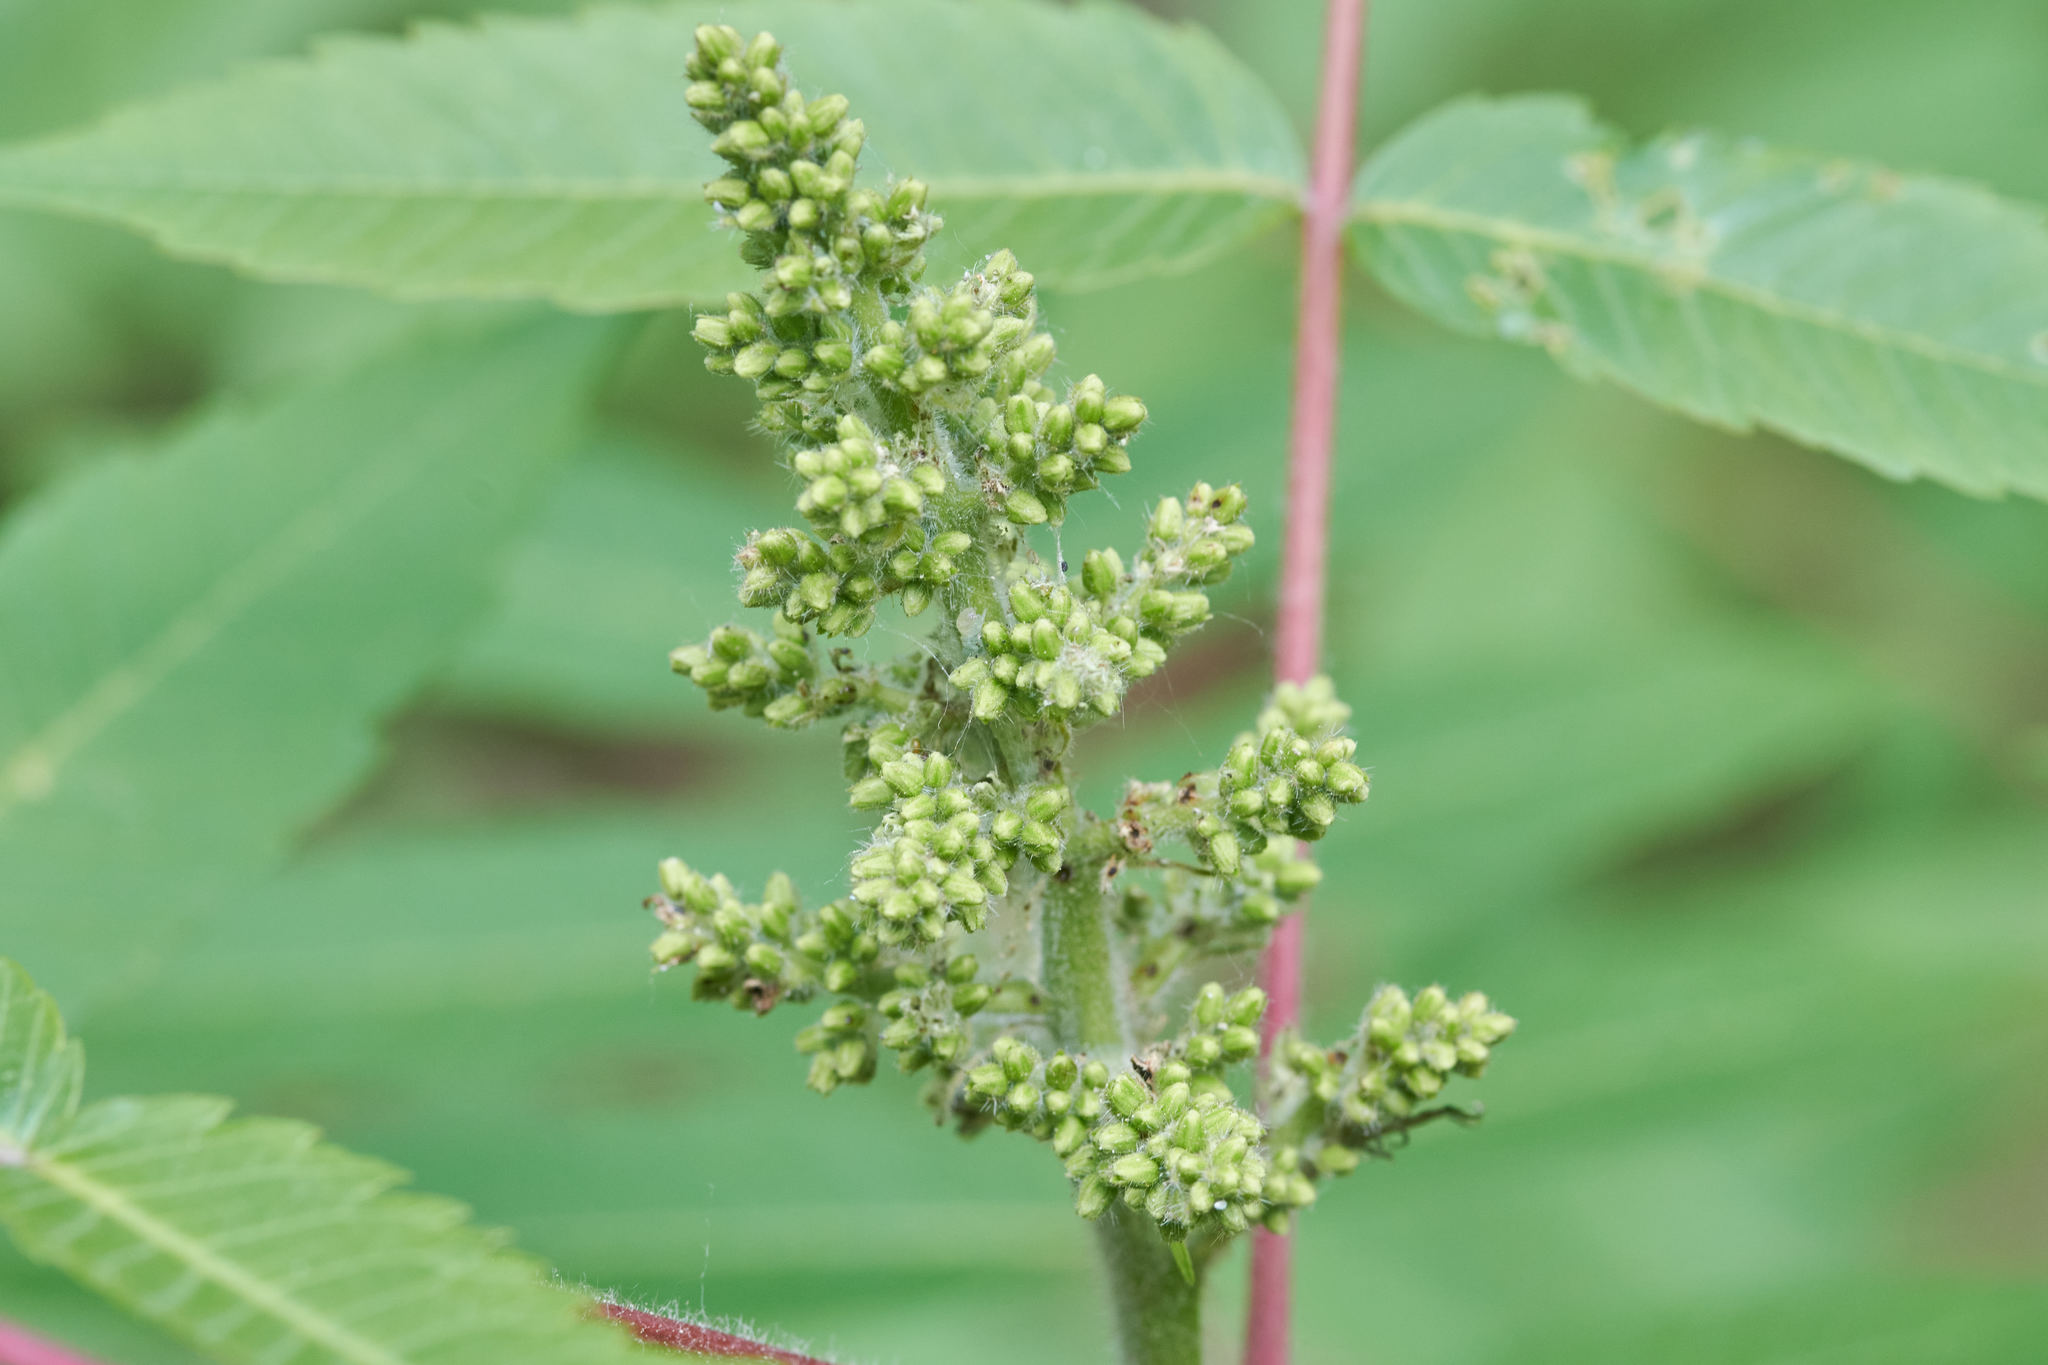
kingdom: Plantae
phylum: Tracheophyta
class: Magnoliopsida
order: Sapindales
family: Anacardiaceae
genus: Rhus
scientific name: Rhus typhina
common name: Staghorn sumac
